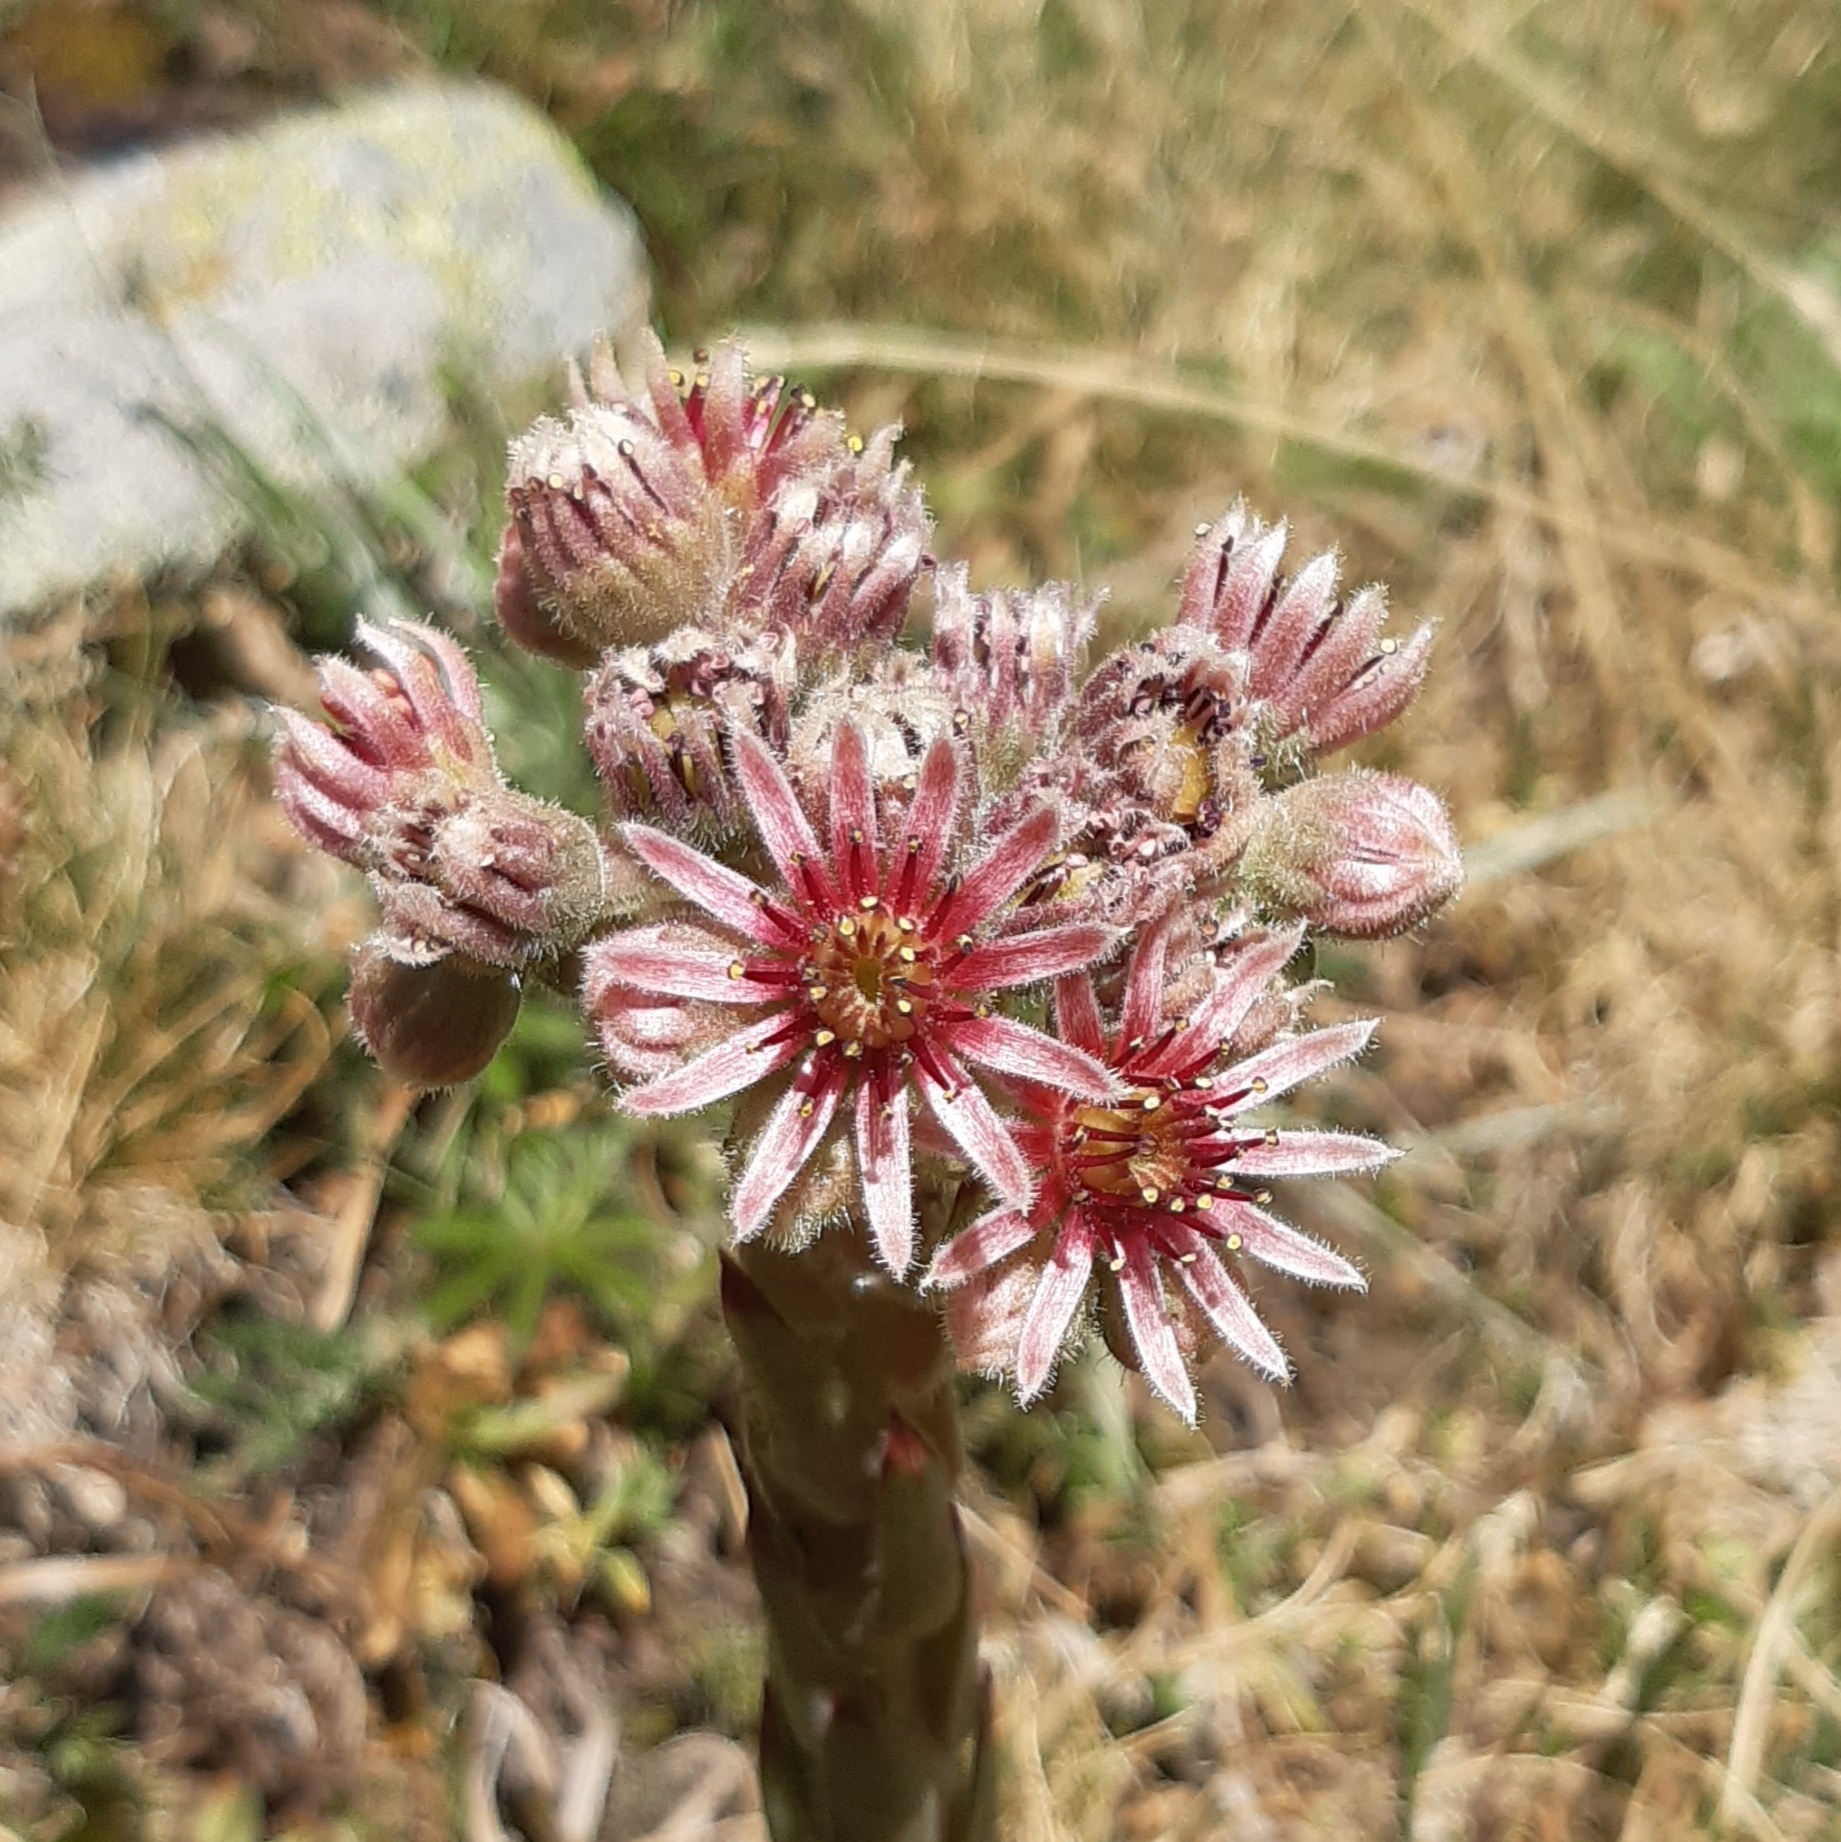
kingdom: Plantae
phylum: Tracheophyta
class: Magnoliopsida
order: Saxifragales
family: Crassulaceae
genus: Sempervivum
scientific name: Sempervivum tectorum
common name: House-leek
